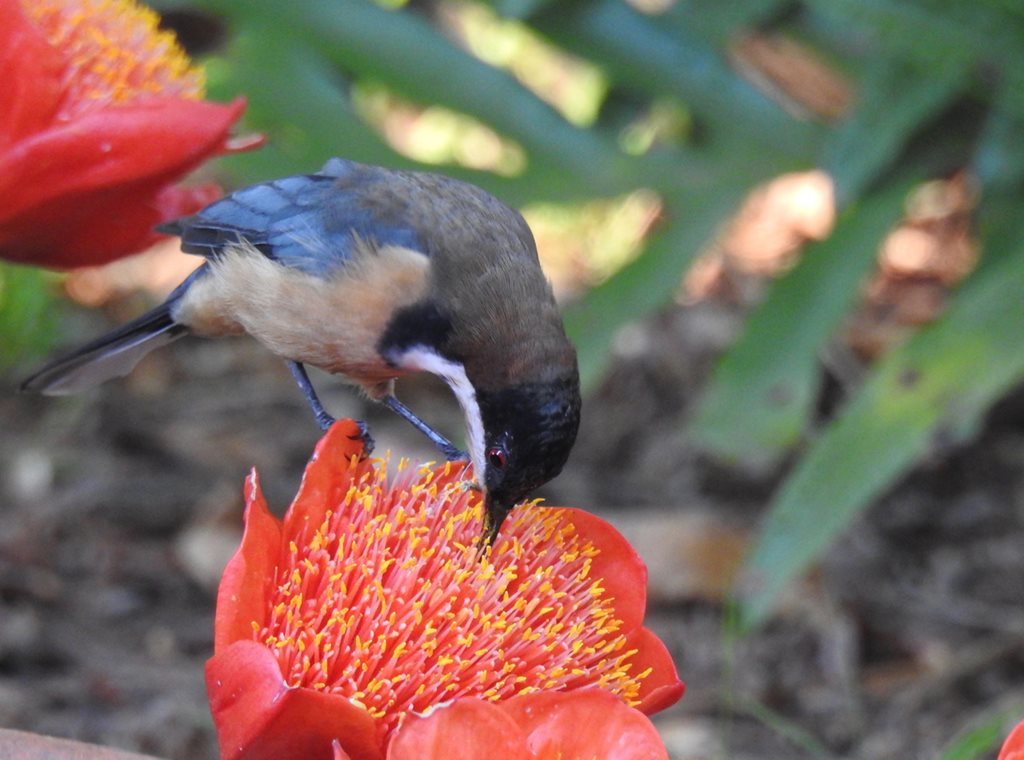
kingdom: Animalia
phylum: Chordata
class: Aves
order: Passeriformes
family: Meliphagidae
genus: Acanthorhynchus
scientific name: Acanthorhynchus tenuirostris
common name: Eastern spinebill
